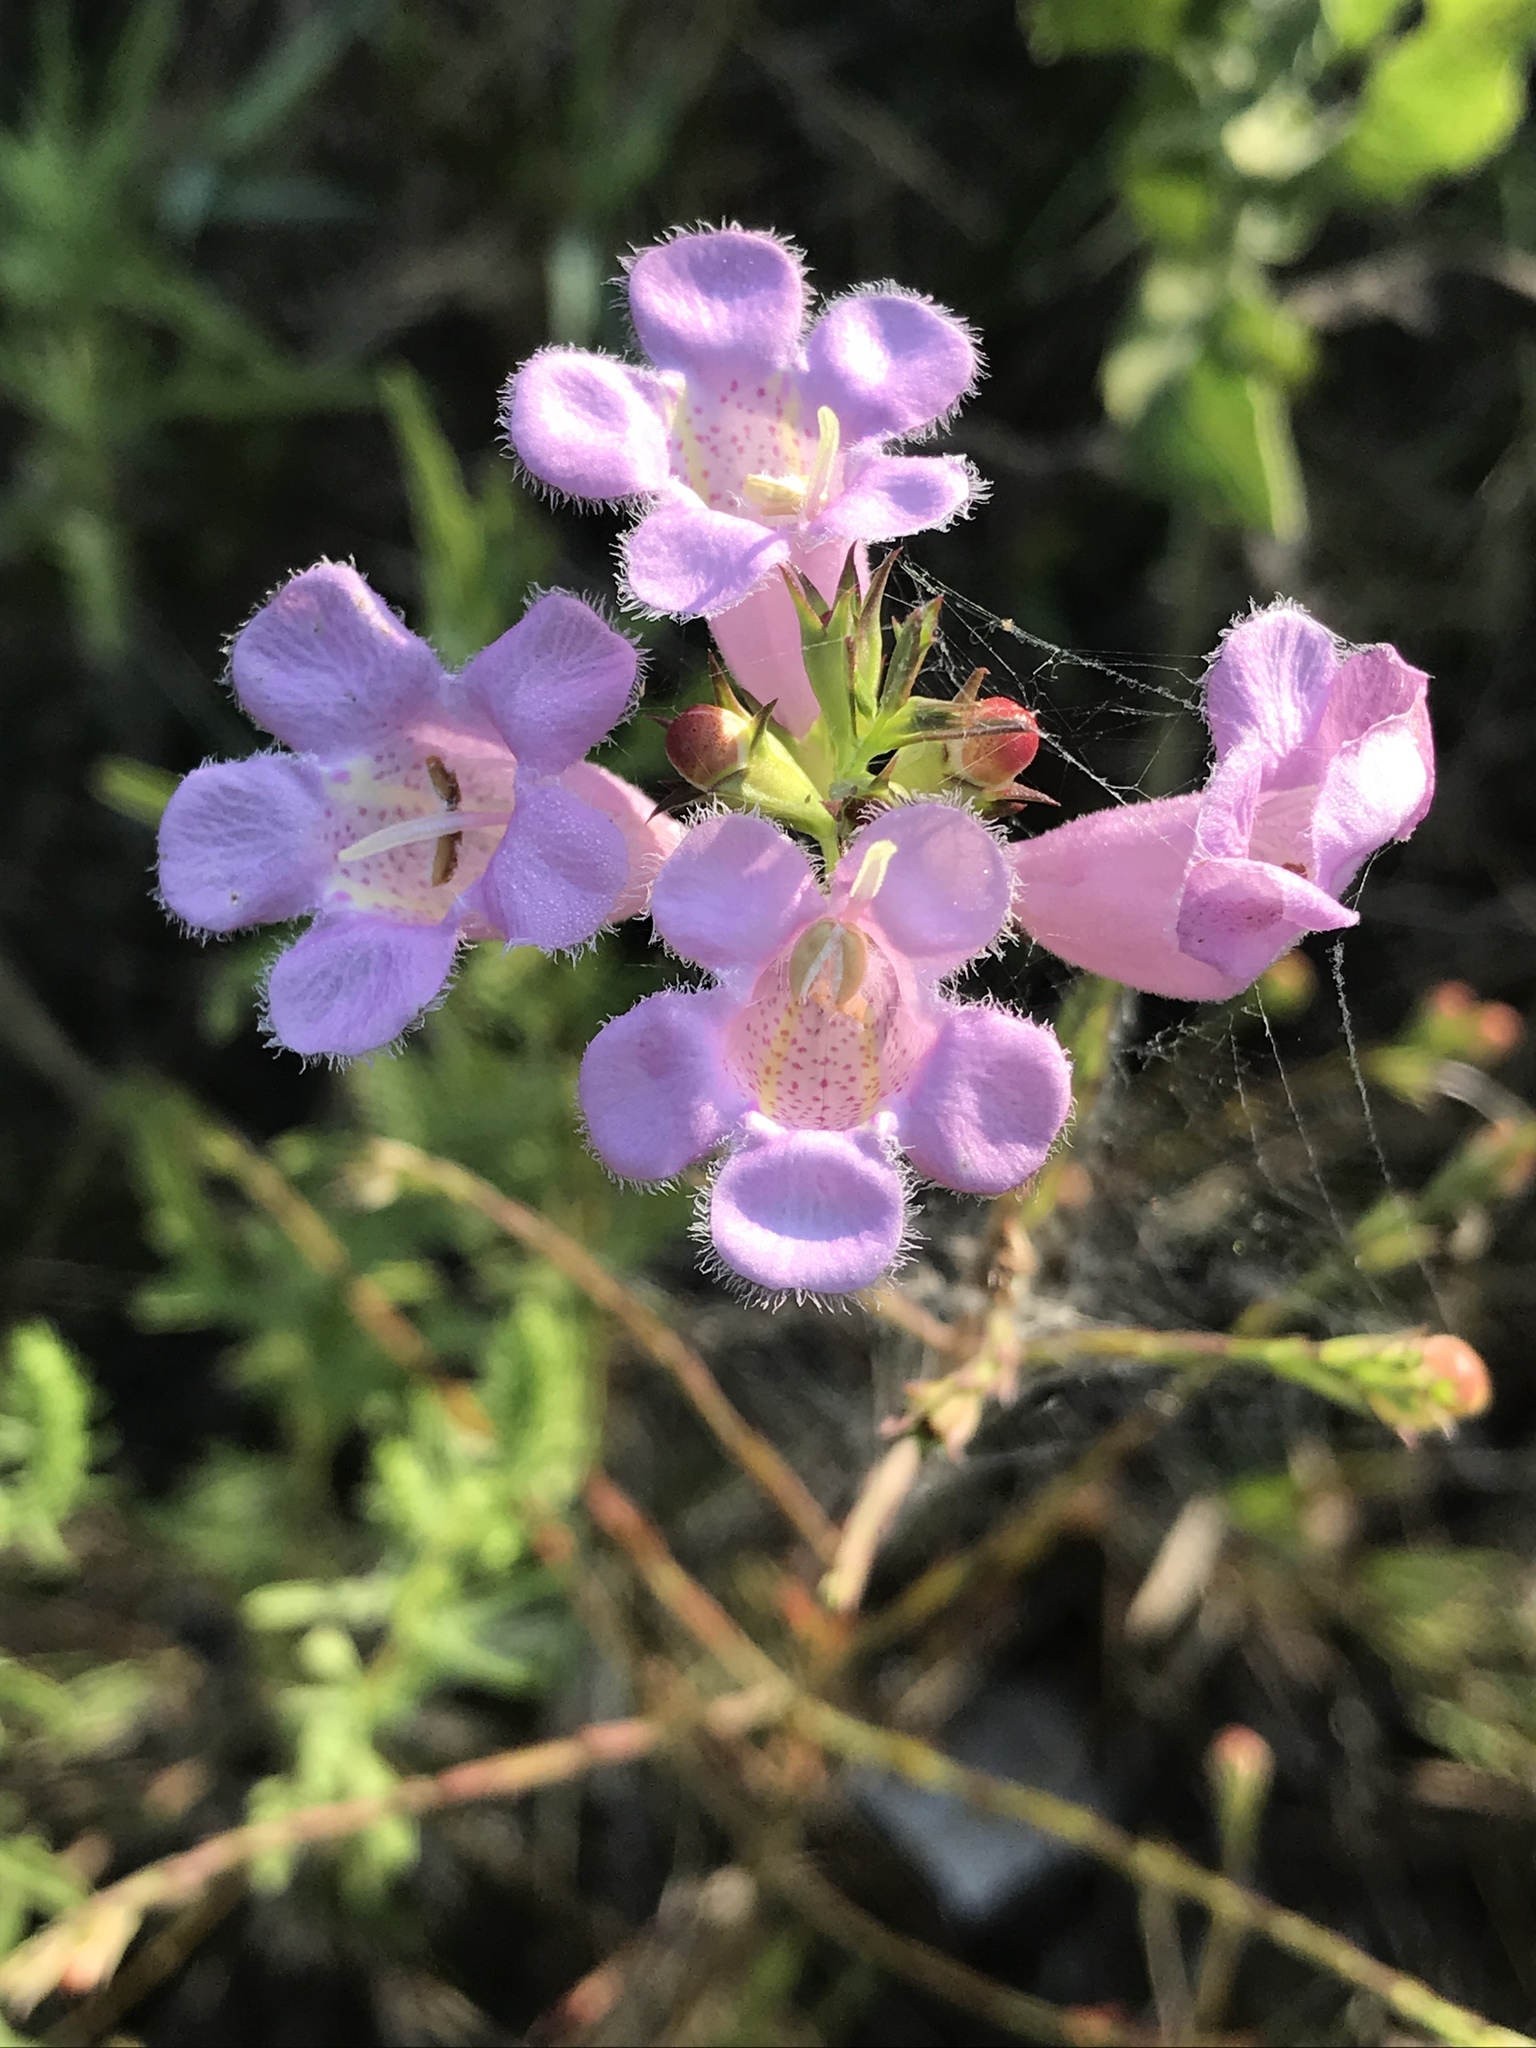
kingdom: Plantae
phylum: Tracheophyta
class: Magnoliopsida
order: Lamiales
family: Orobanchaceae
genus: Agalinis
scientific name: Agalinis heterophylla
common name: Prairie agalinis
